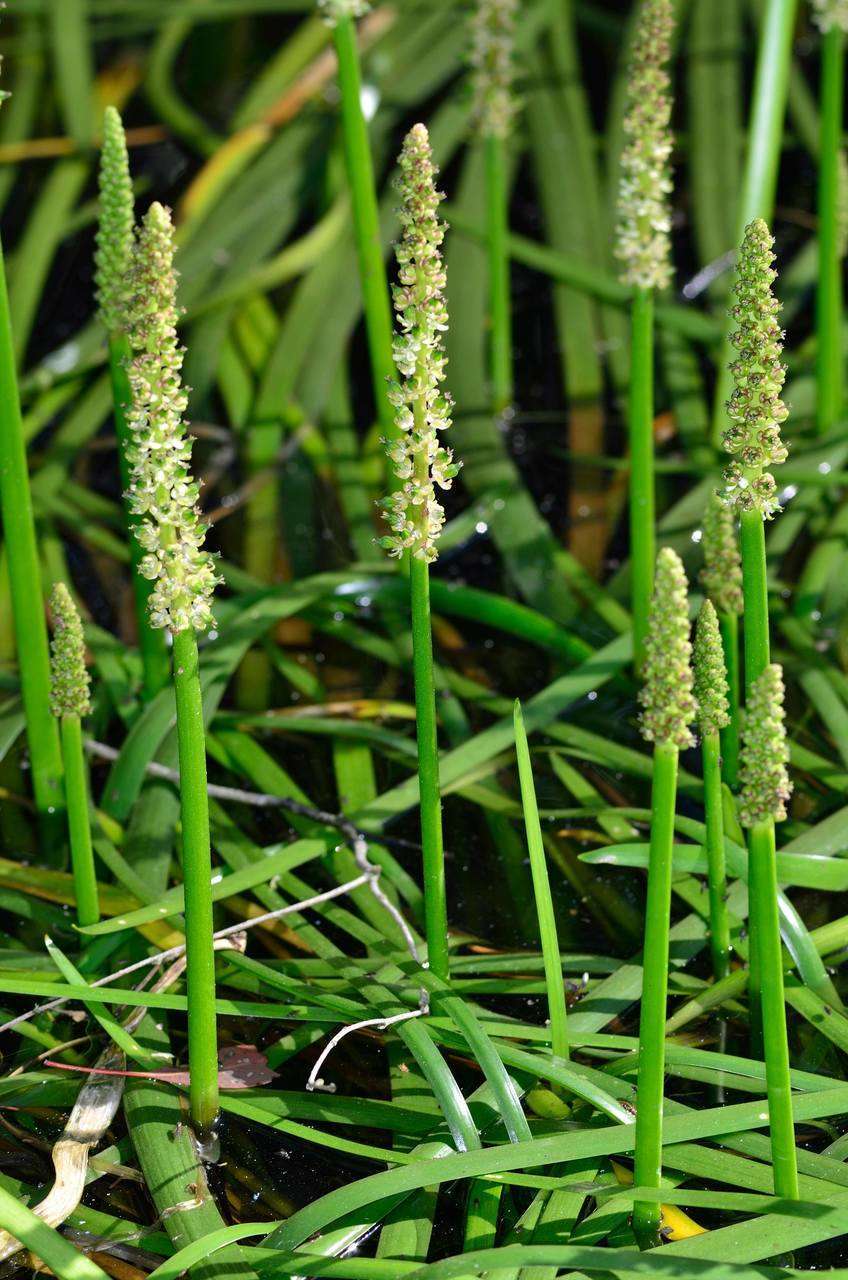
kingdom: Plantae
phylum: Tracheophyta
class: Liliopsida
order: Alismatales
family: Juncaginaceae
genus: Cycnogeton
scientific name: Cycnogeton procerum
